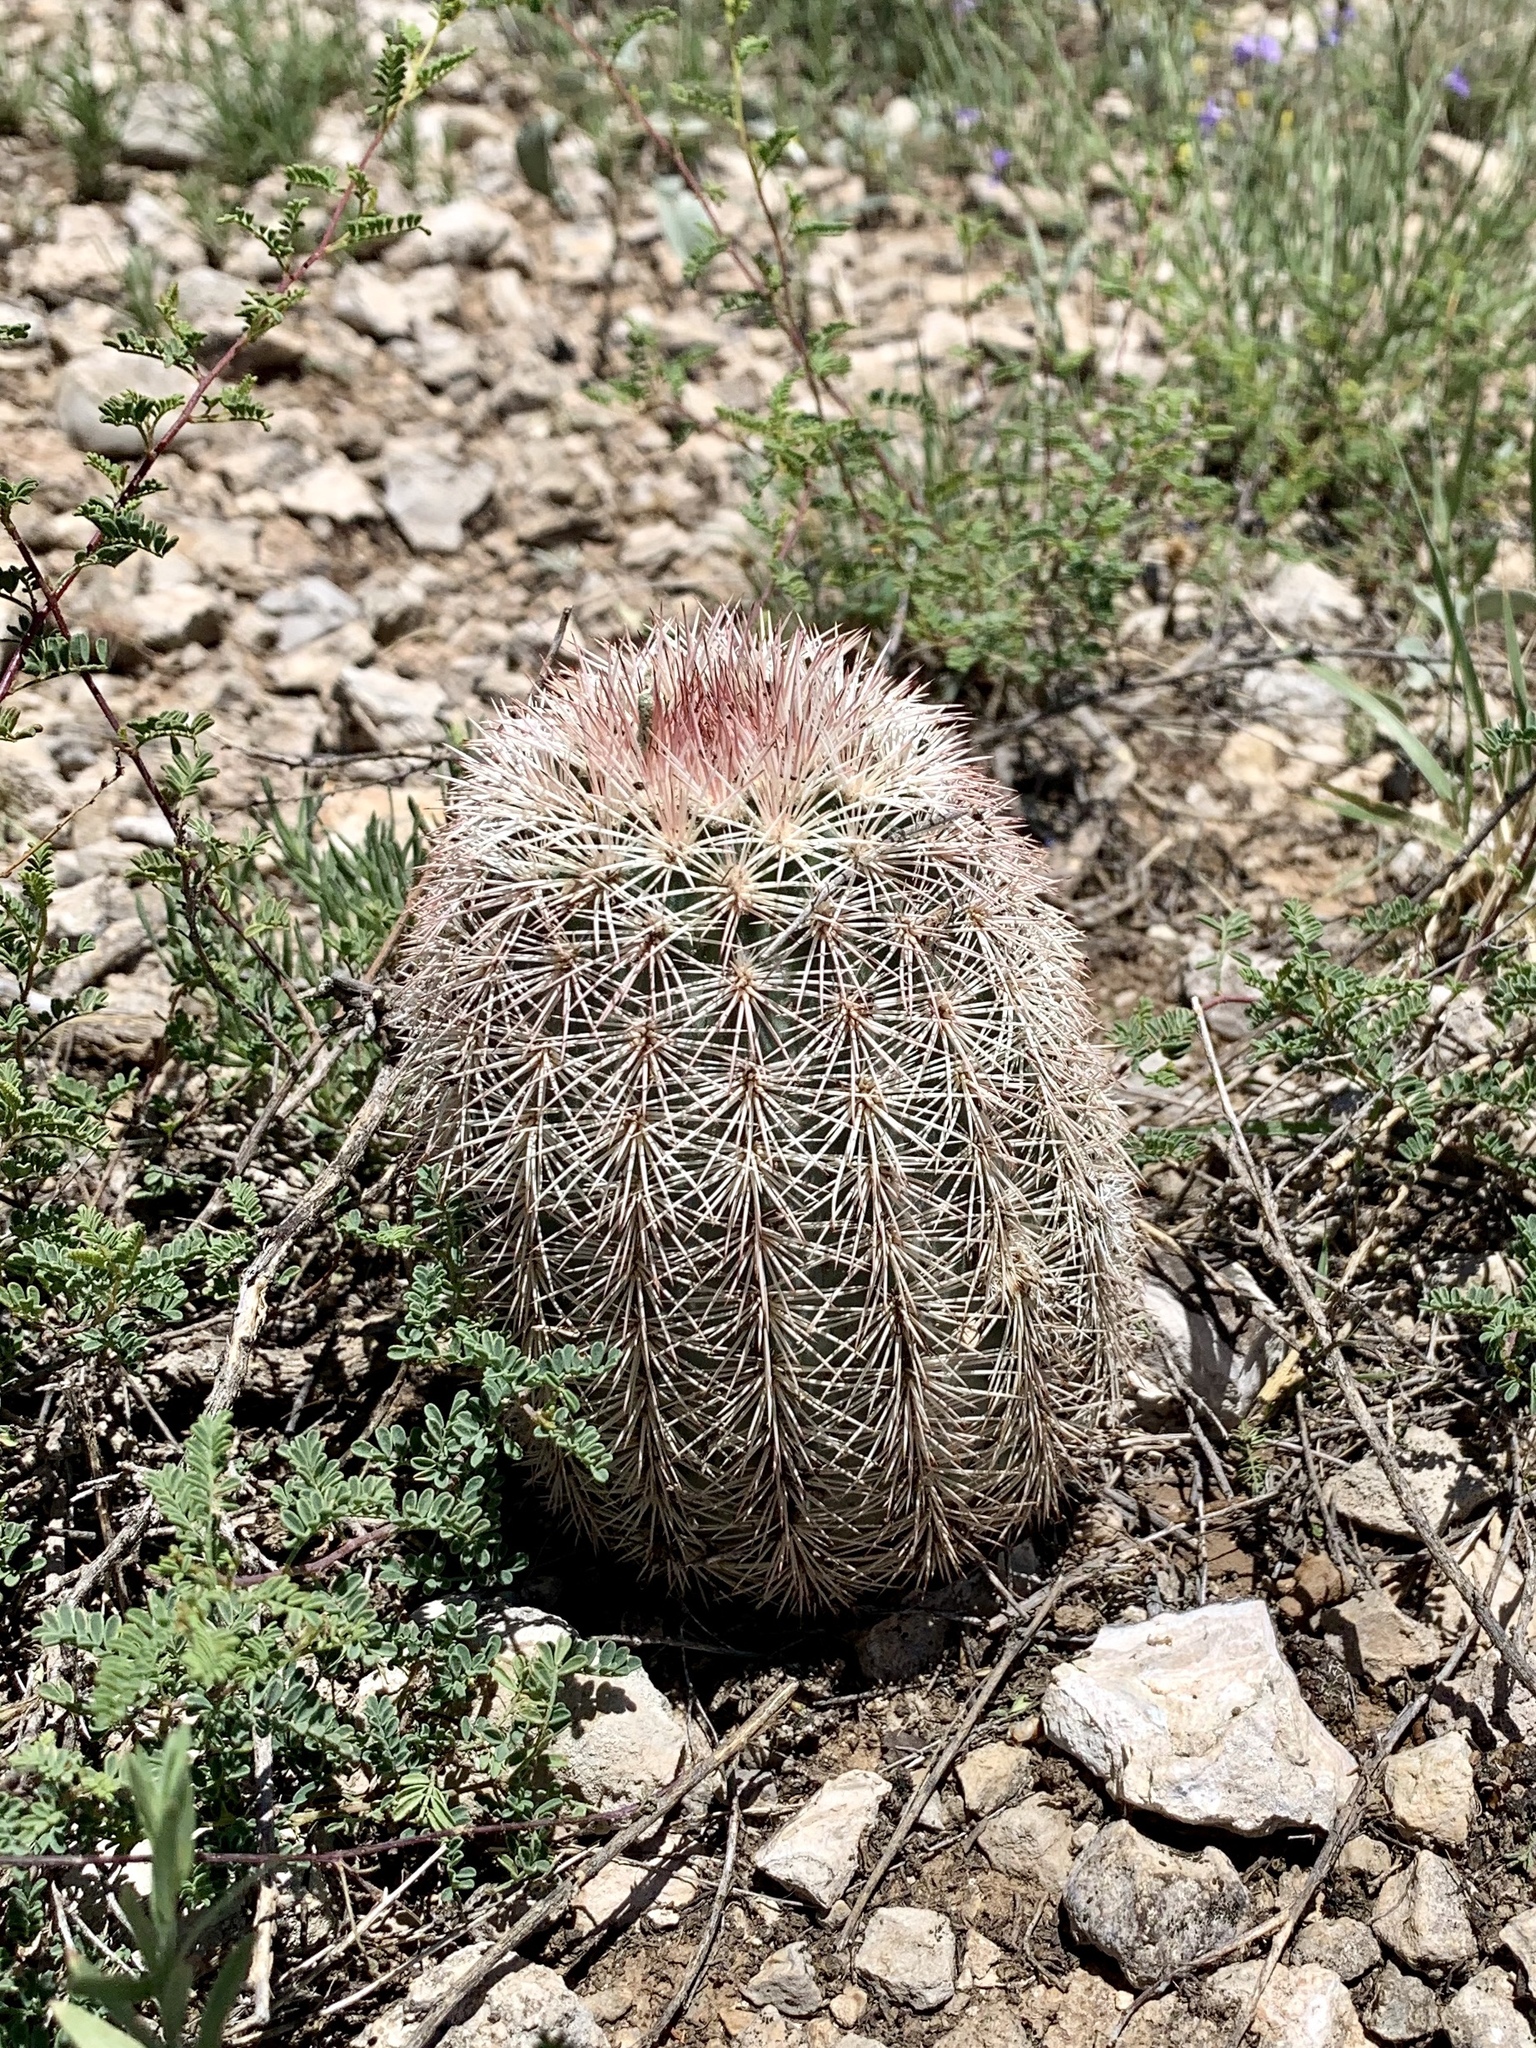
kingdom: Plantae
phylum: Tracheophyta
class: Magnoliopsida
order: Caryophyllales
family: Cactaceae
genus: Echinocereus
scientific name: Echinocereus dasyacanthus
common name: Spiny hedgehog cactus
